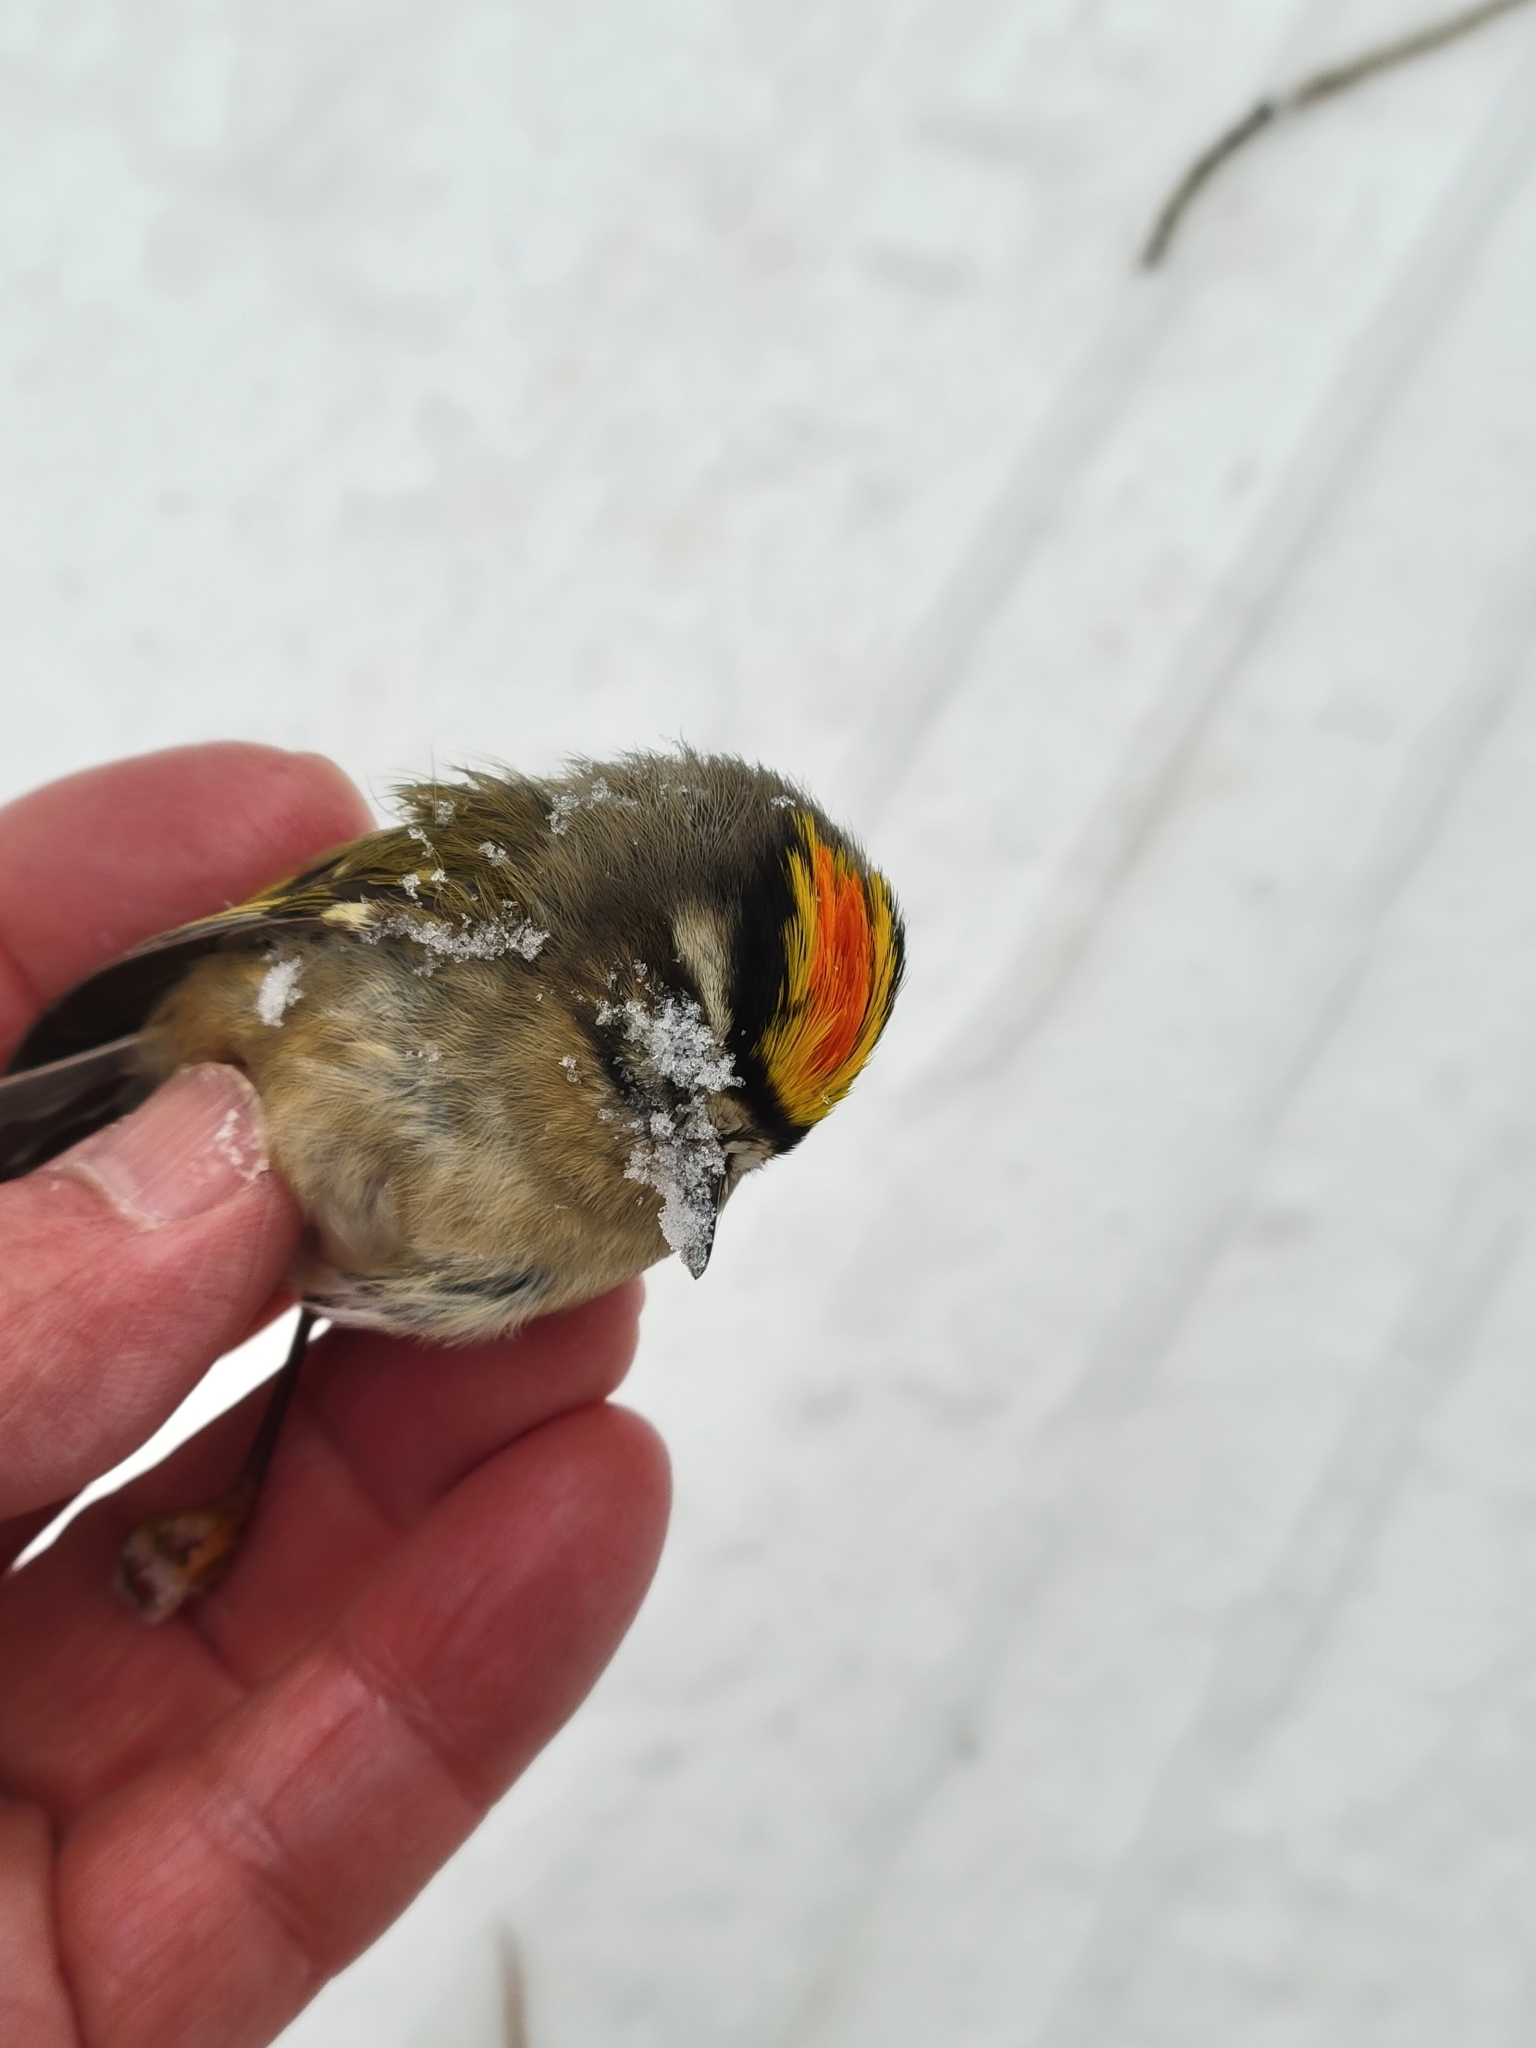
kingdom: Animalia
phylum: Chordata
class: Aves
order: Passeriformes
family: Regulidae
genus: Regulus
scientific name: Regulus satrapa
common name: Golden-crowned kinglet
